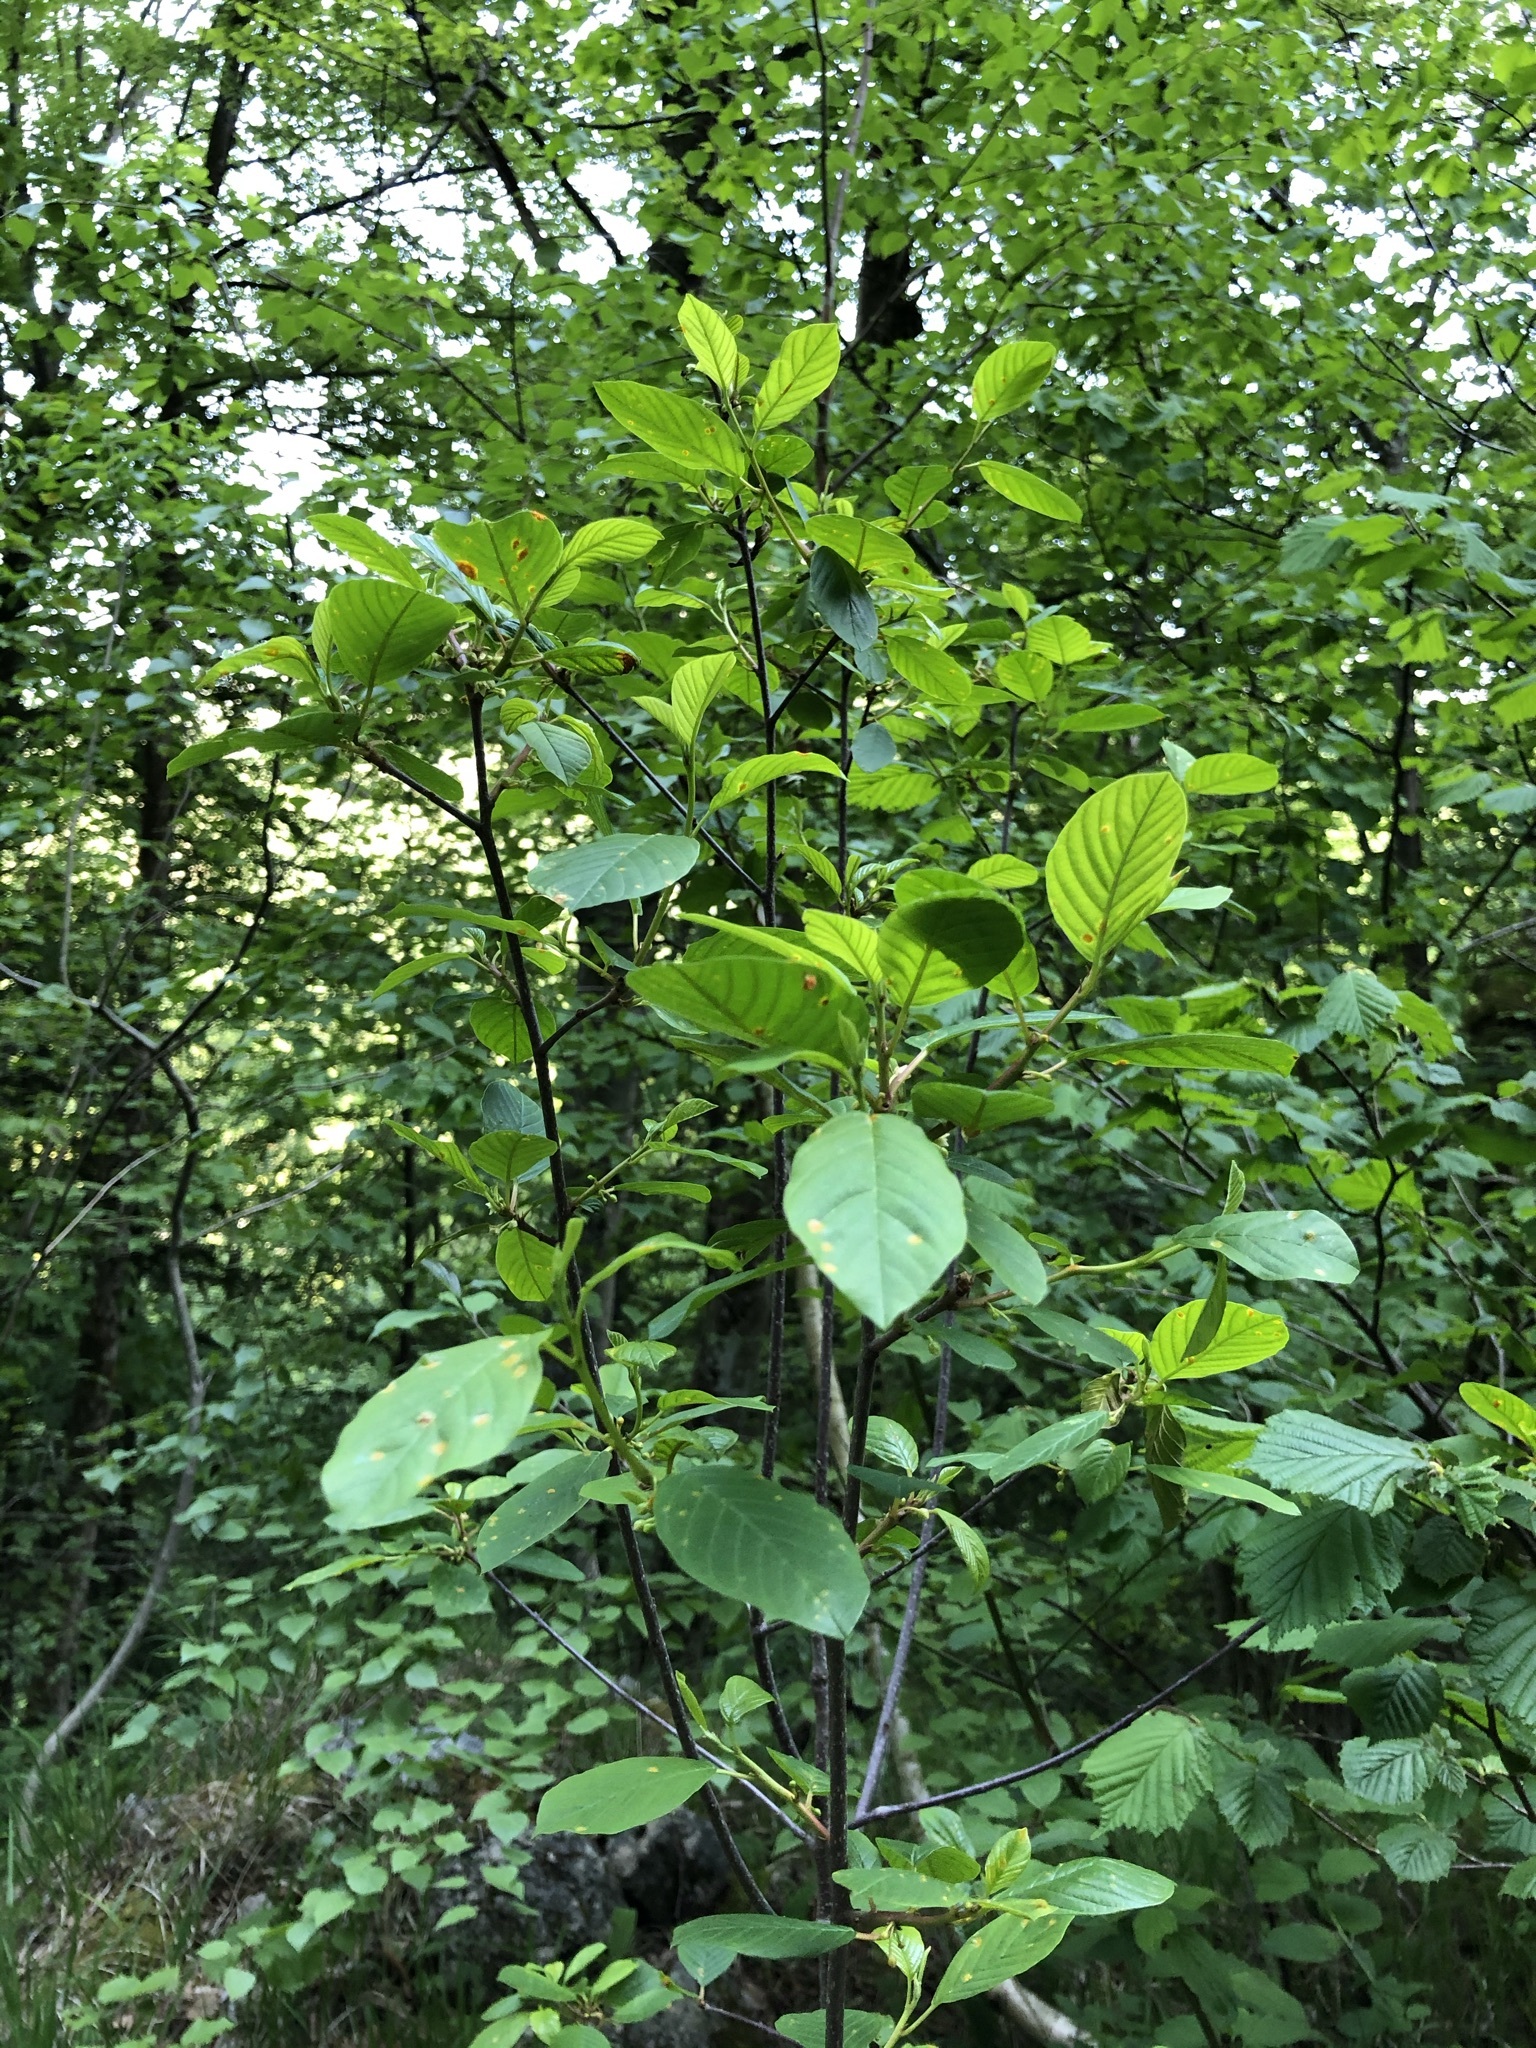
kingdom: Plantae
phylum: Tracheophyta
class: Magnoliopsida
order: Rosales
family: Rhamnaceae
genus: Frangula
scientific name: Frangula alnus
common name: Alder buckthorn
